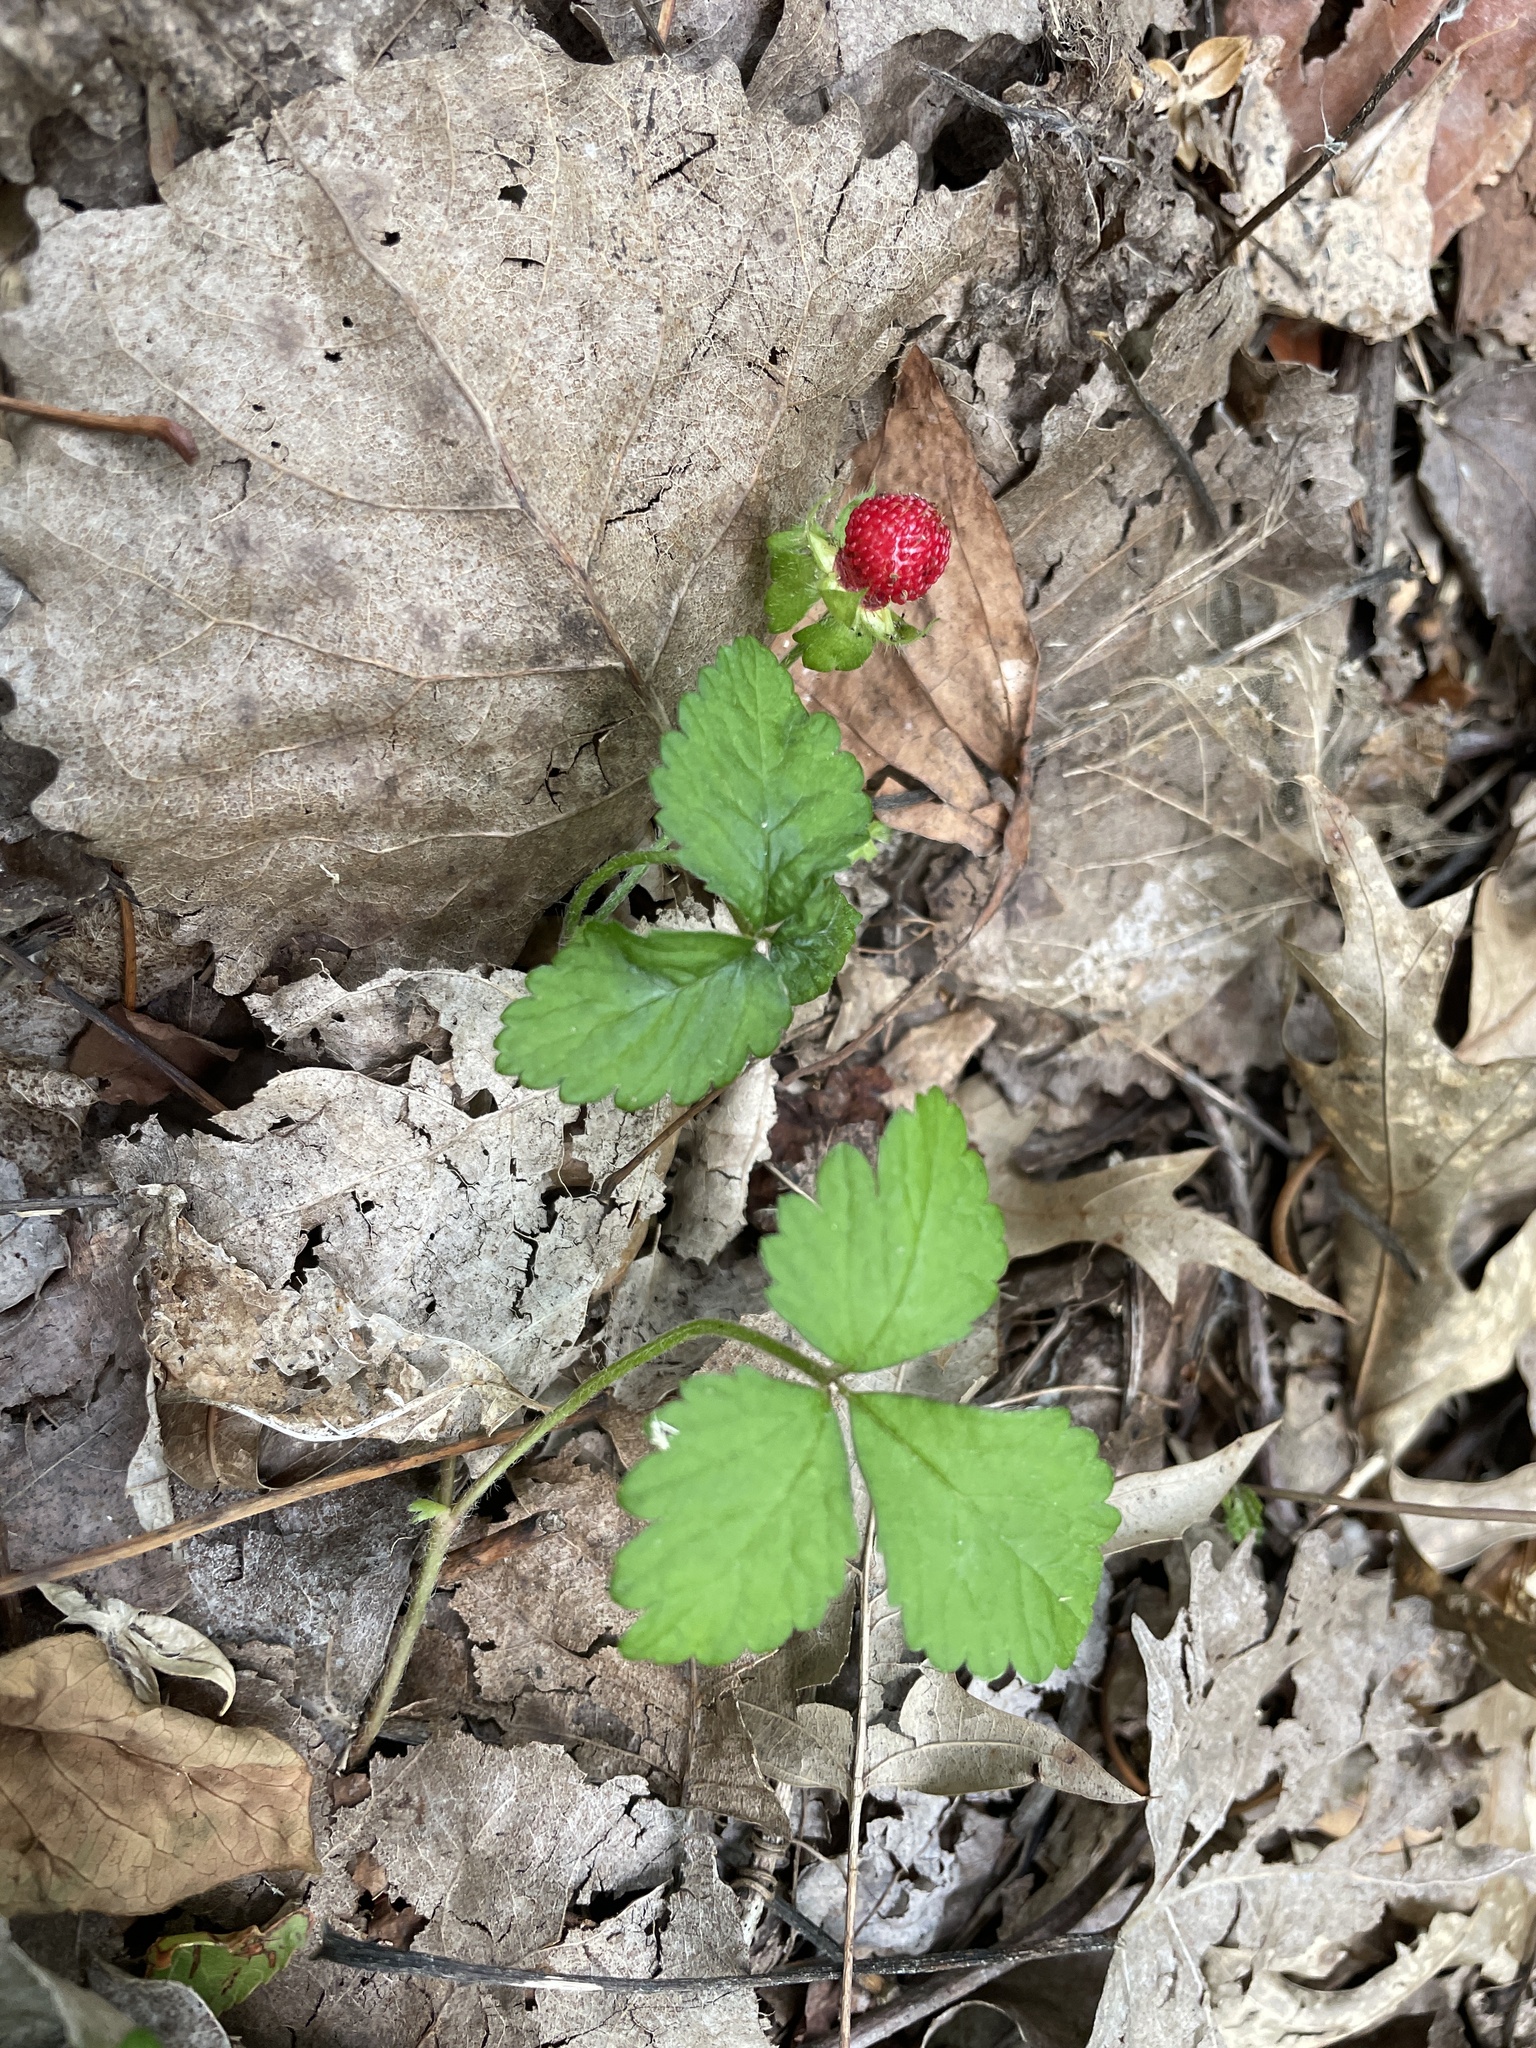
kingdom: Plantae
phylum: Tracheophyta
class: Magnoliopsida
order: Rosales
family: Rosaceae
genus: Potentilla
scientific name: Potentilla indica
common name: Yellow-flowered strawberry
